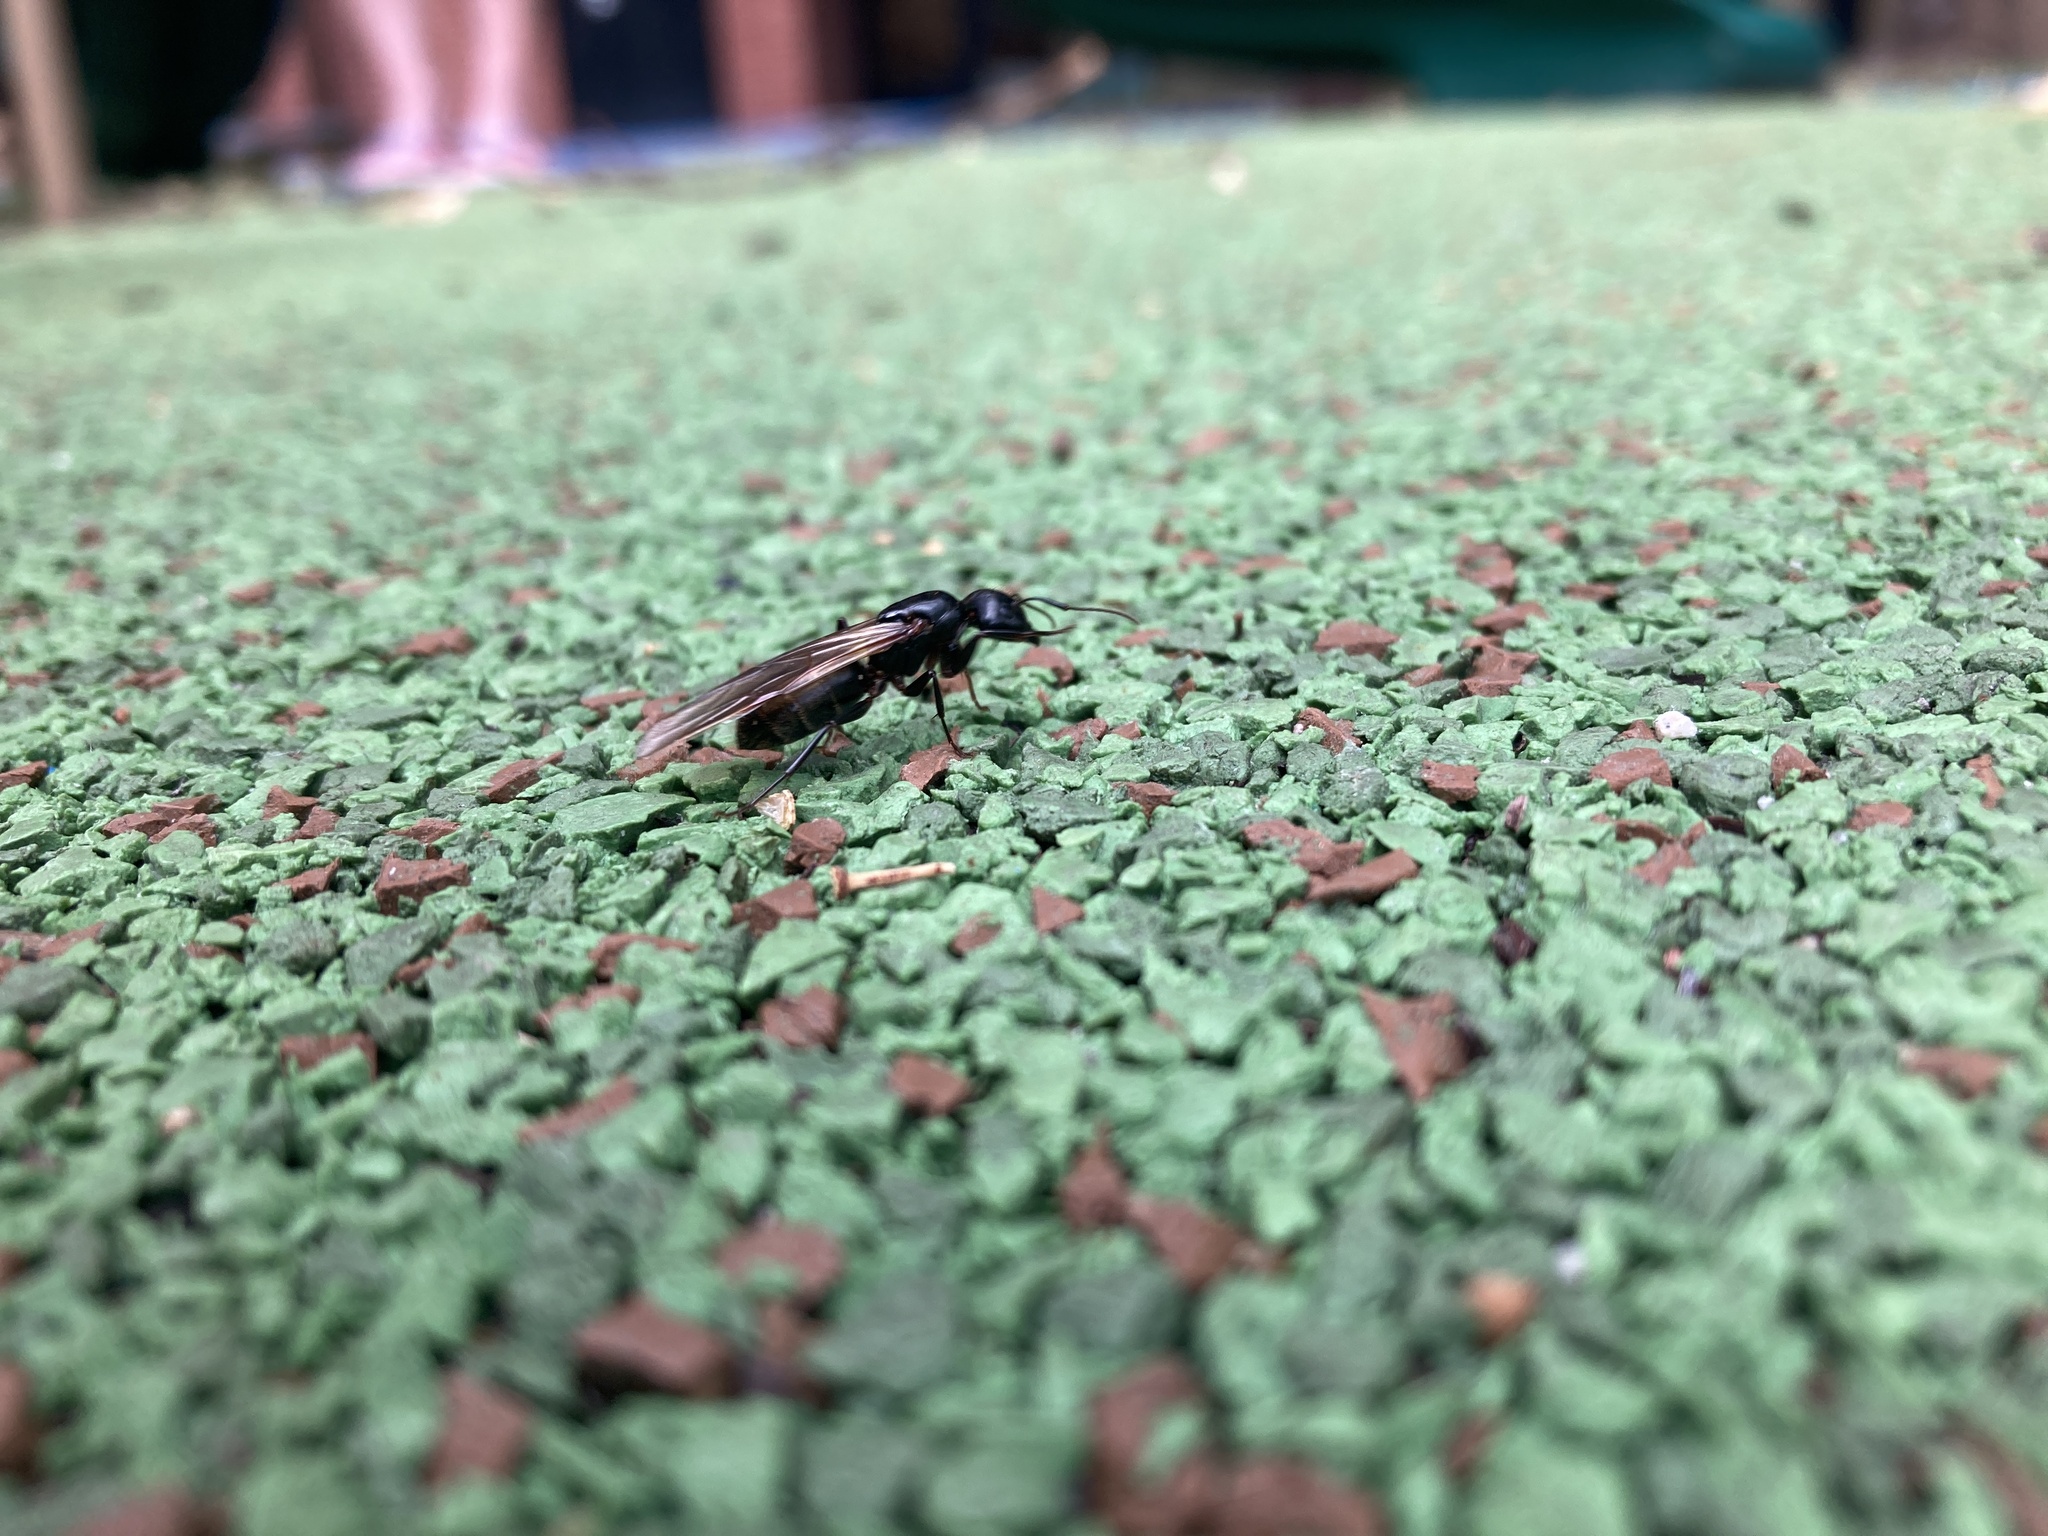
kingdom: Animalia
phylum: Arthropoda
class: Insecta
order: Hymenoptera
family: Formicidae
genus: Camponotus
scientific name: Camponotus pennsylvanicus
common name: Black carpenter ant
